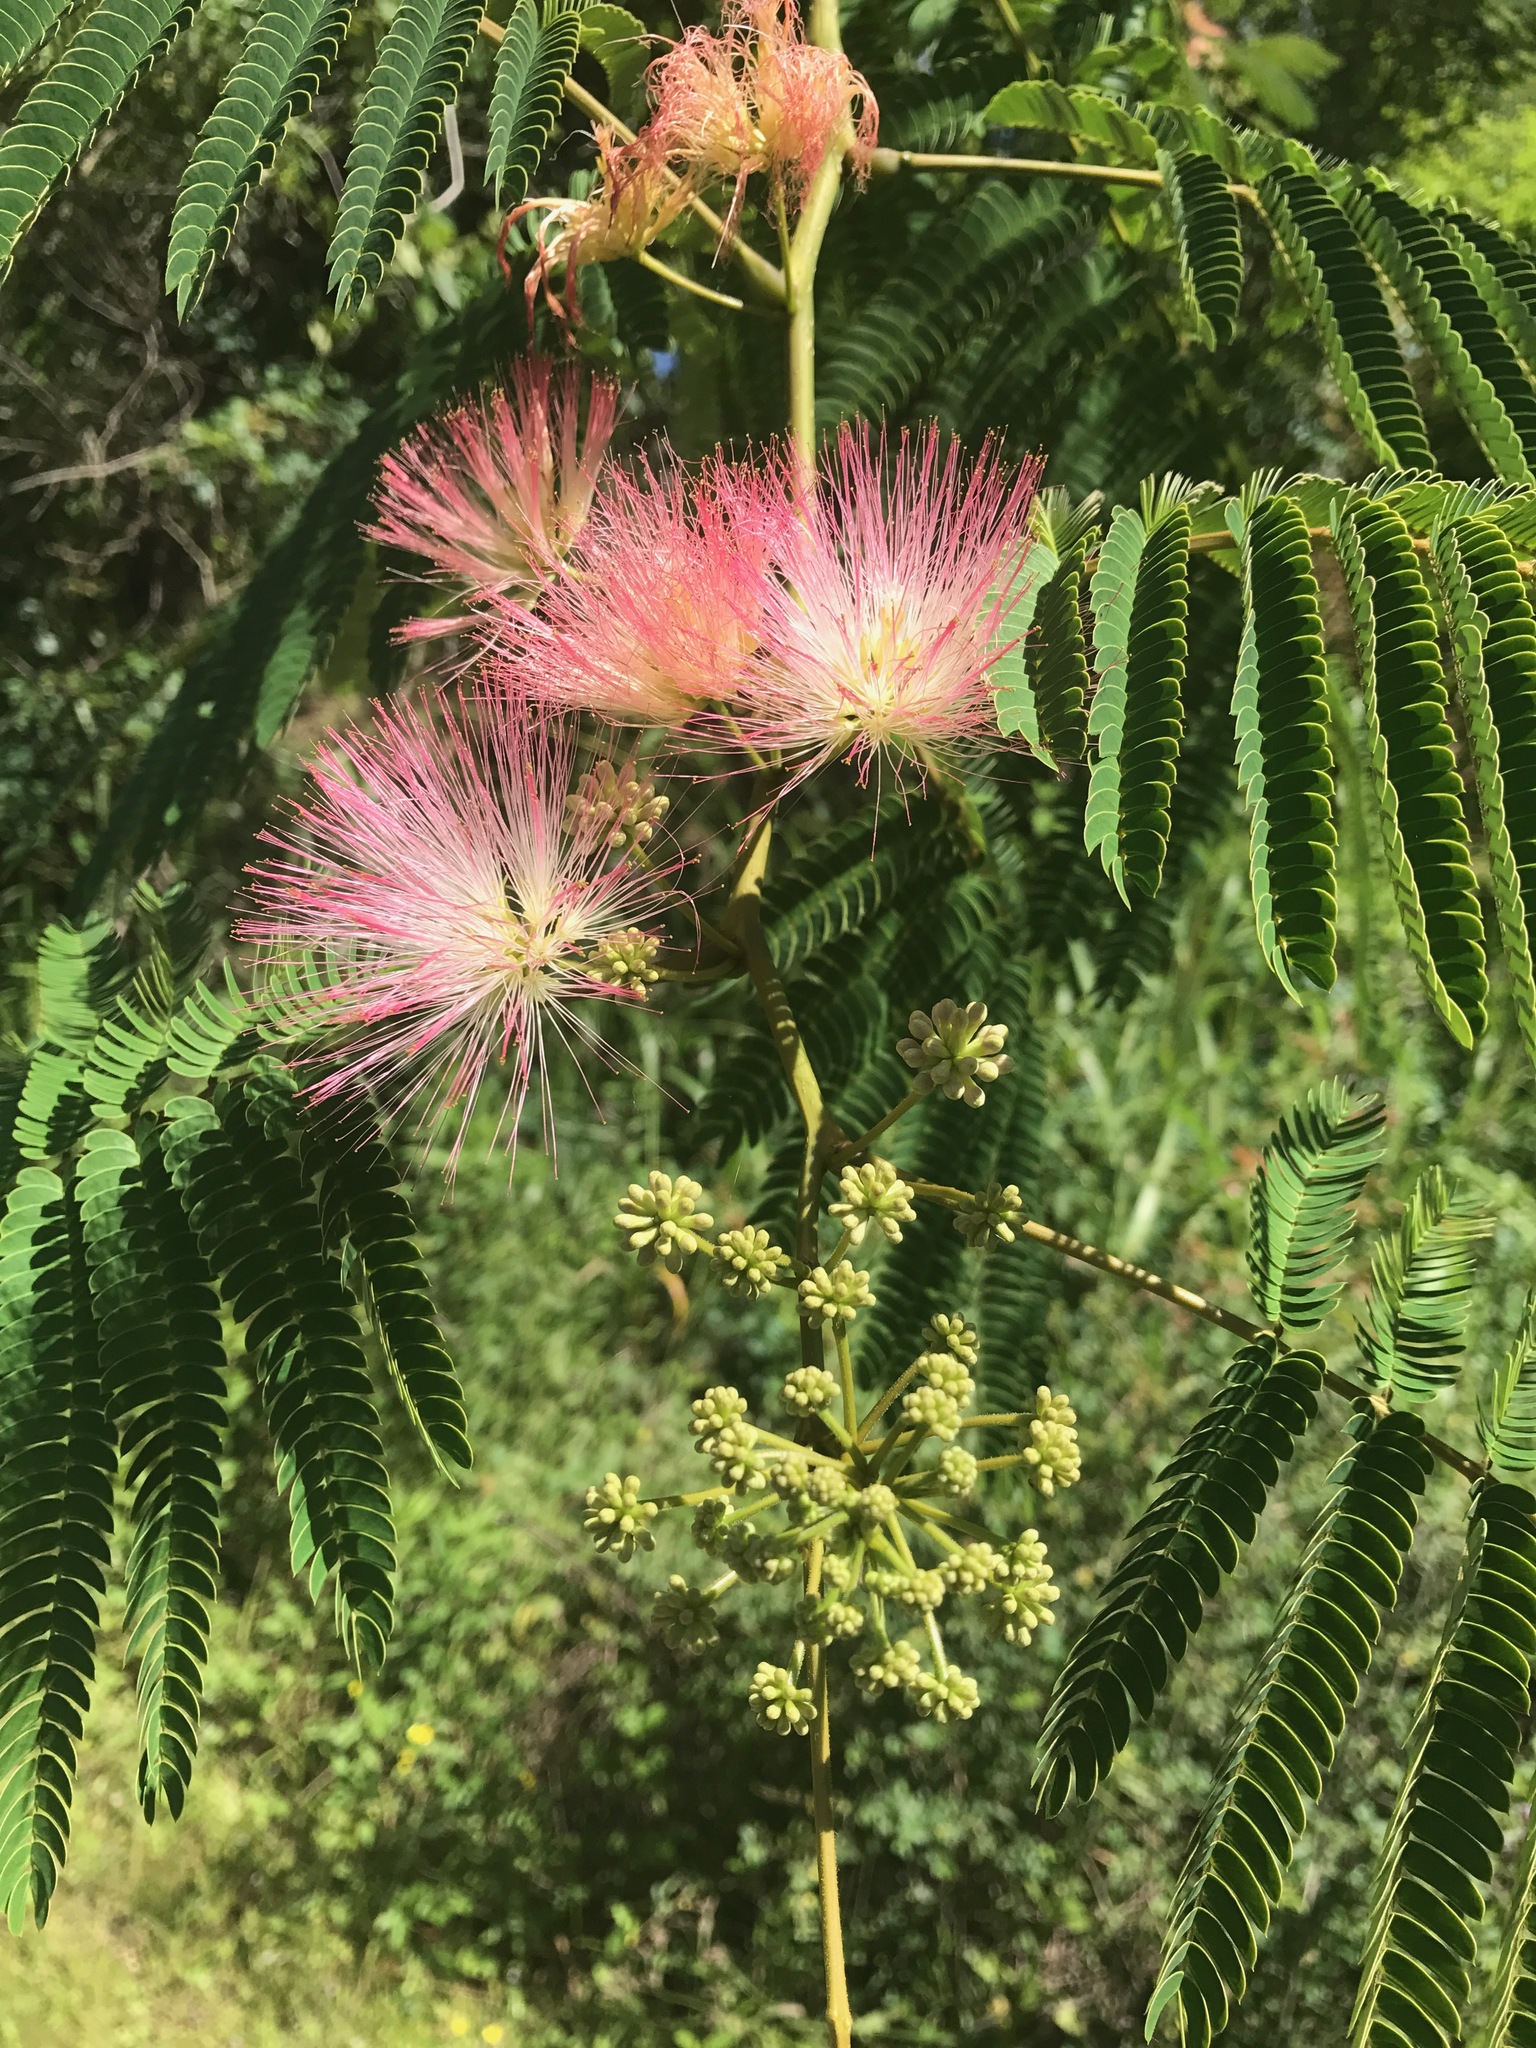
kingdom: Plantae
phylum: Tracheophyta
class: Magnoliopsida
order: Fabales
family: Fabaceae
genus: Albizia
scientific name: Albizia julibrissin
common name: Silktree
